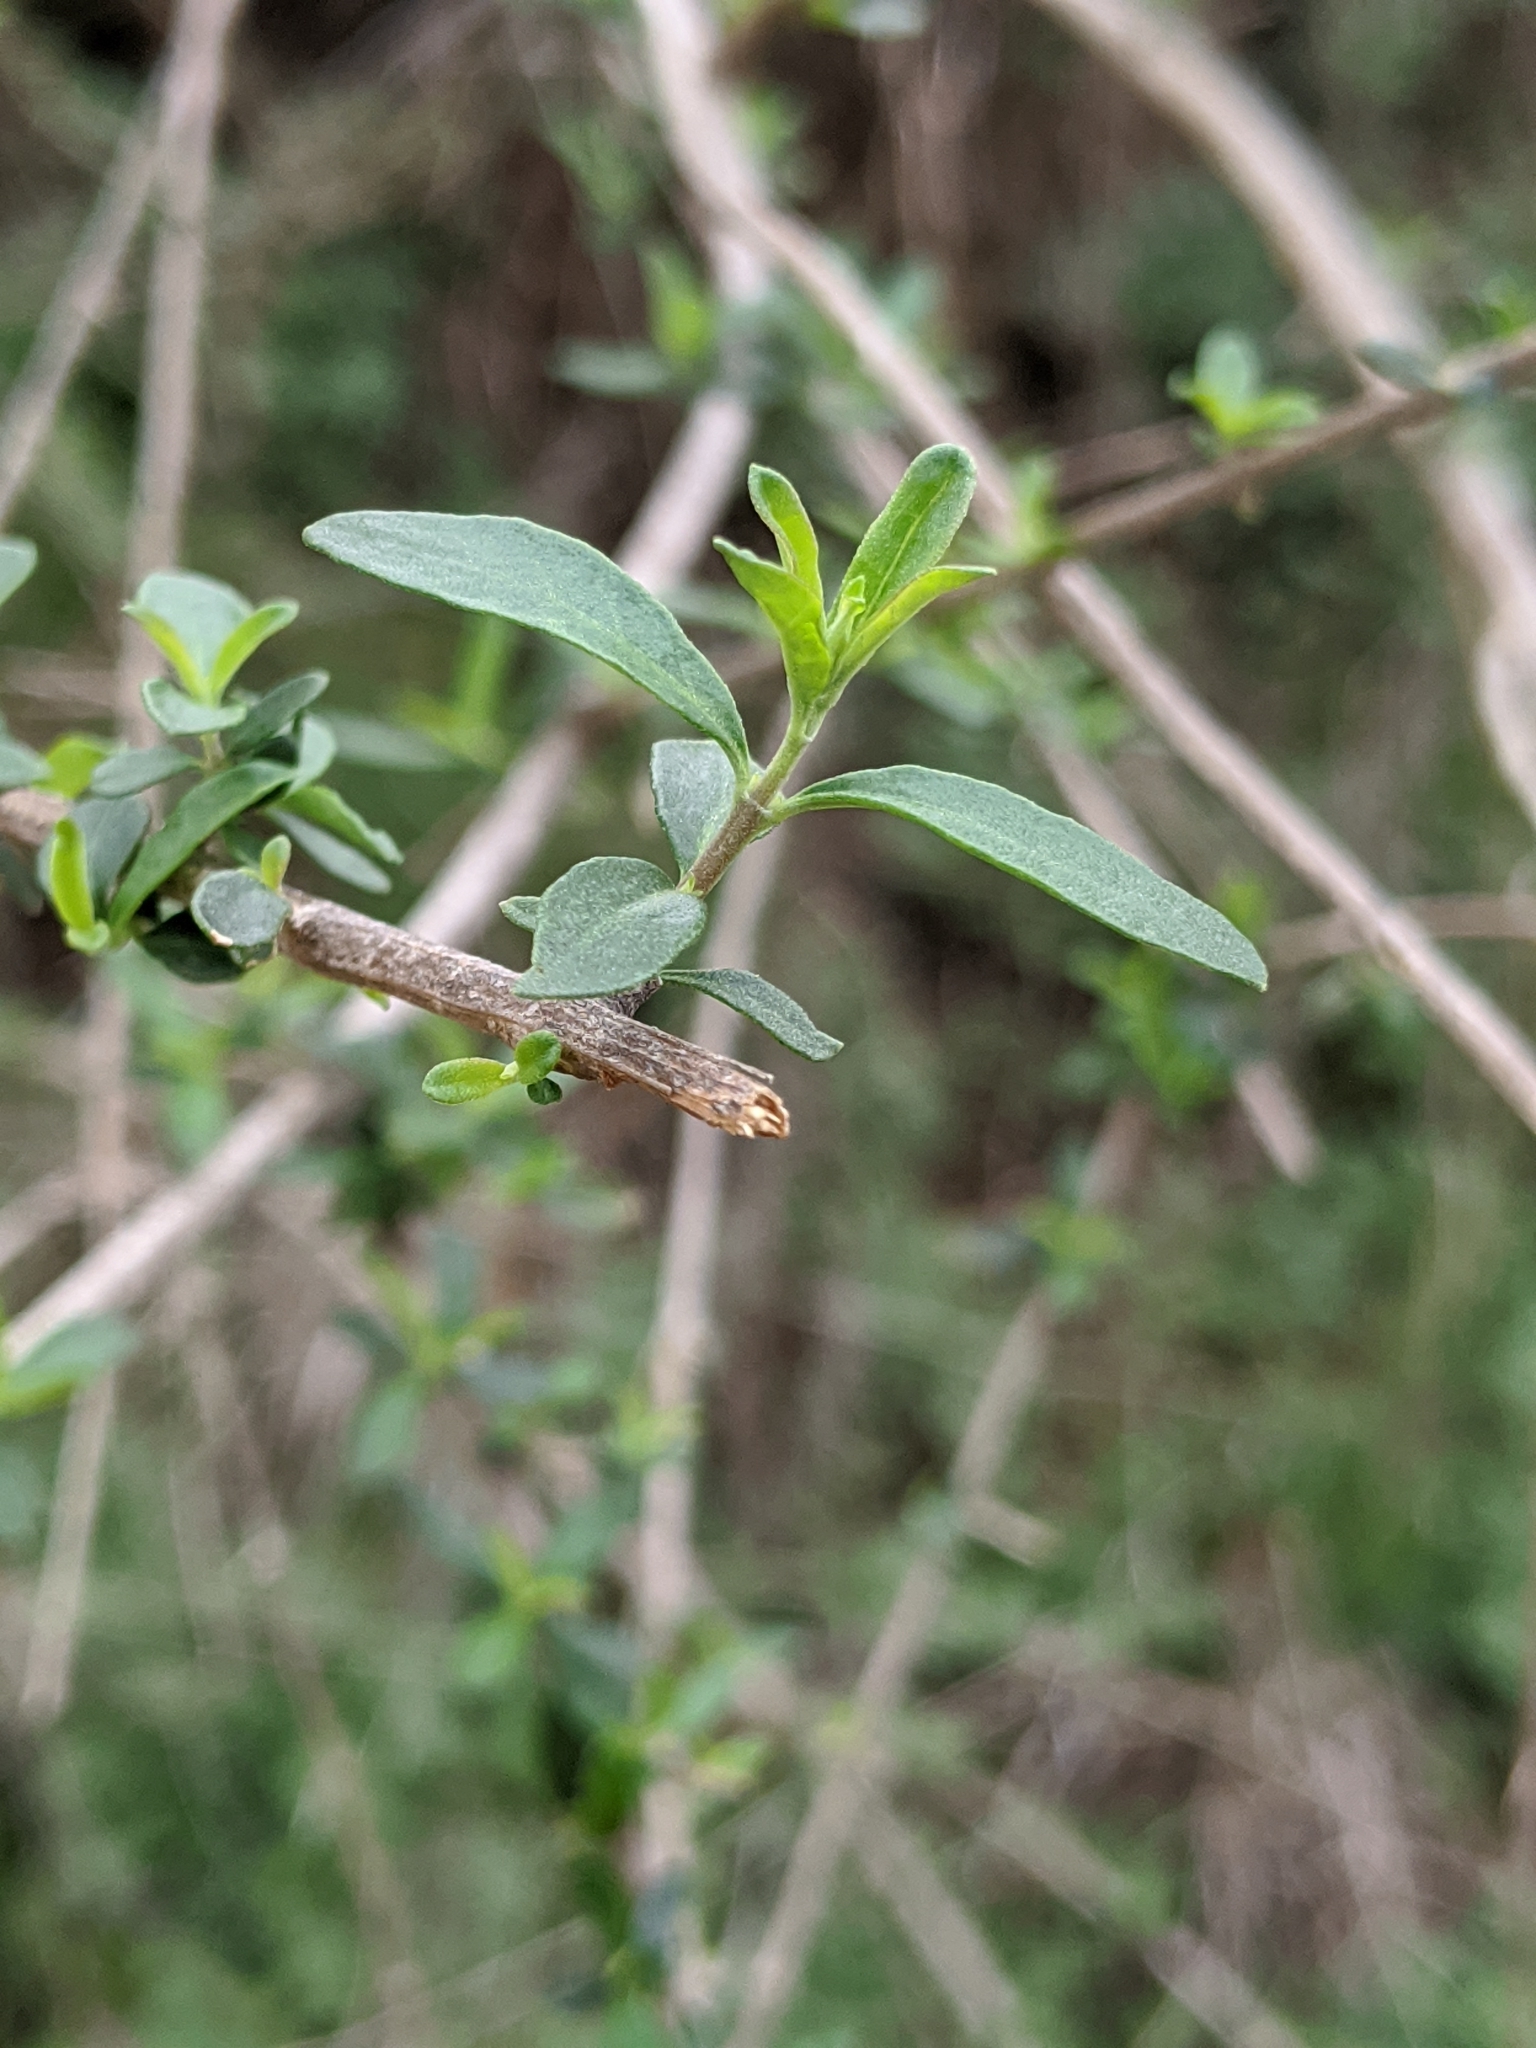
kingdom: Plantae
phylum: Tracheophyta
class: Magnoliopsida
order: Lamiales
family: Verbenaceae
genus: Aloysia
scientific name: Aloysia gratissima
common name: Common bee-brush
